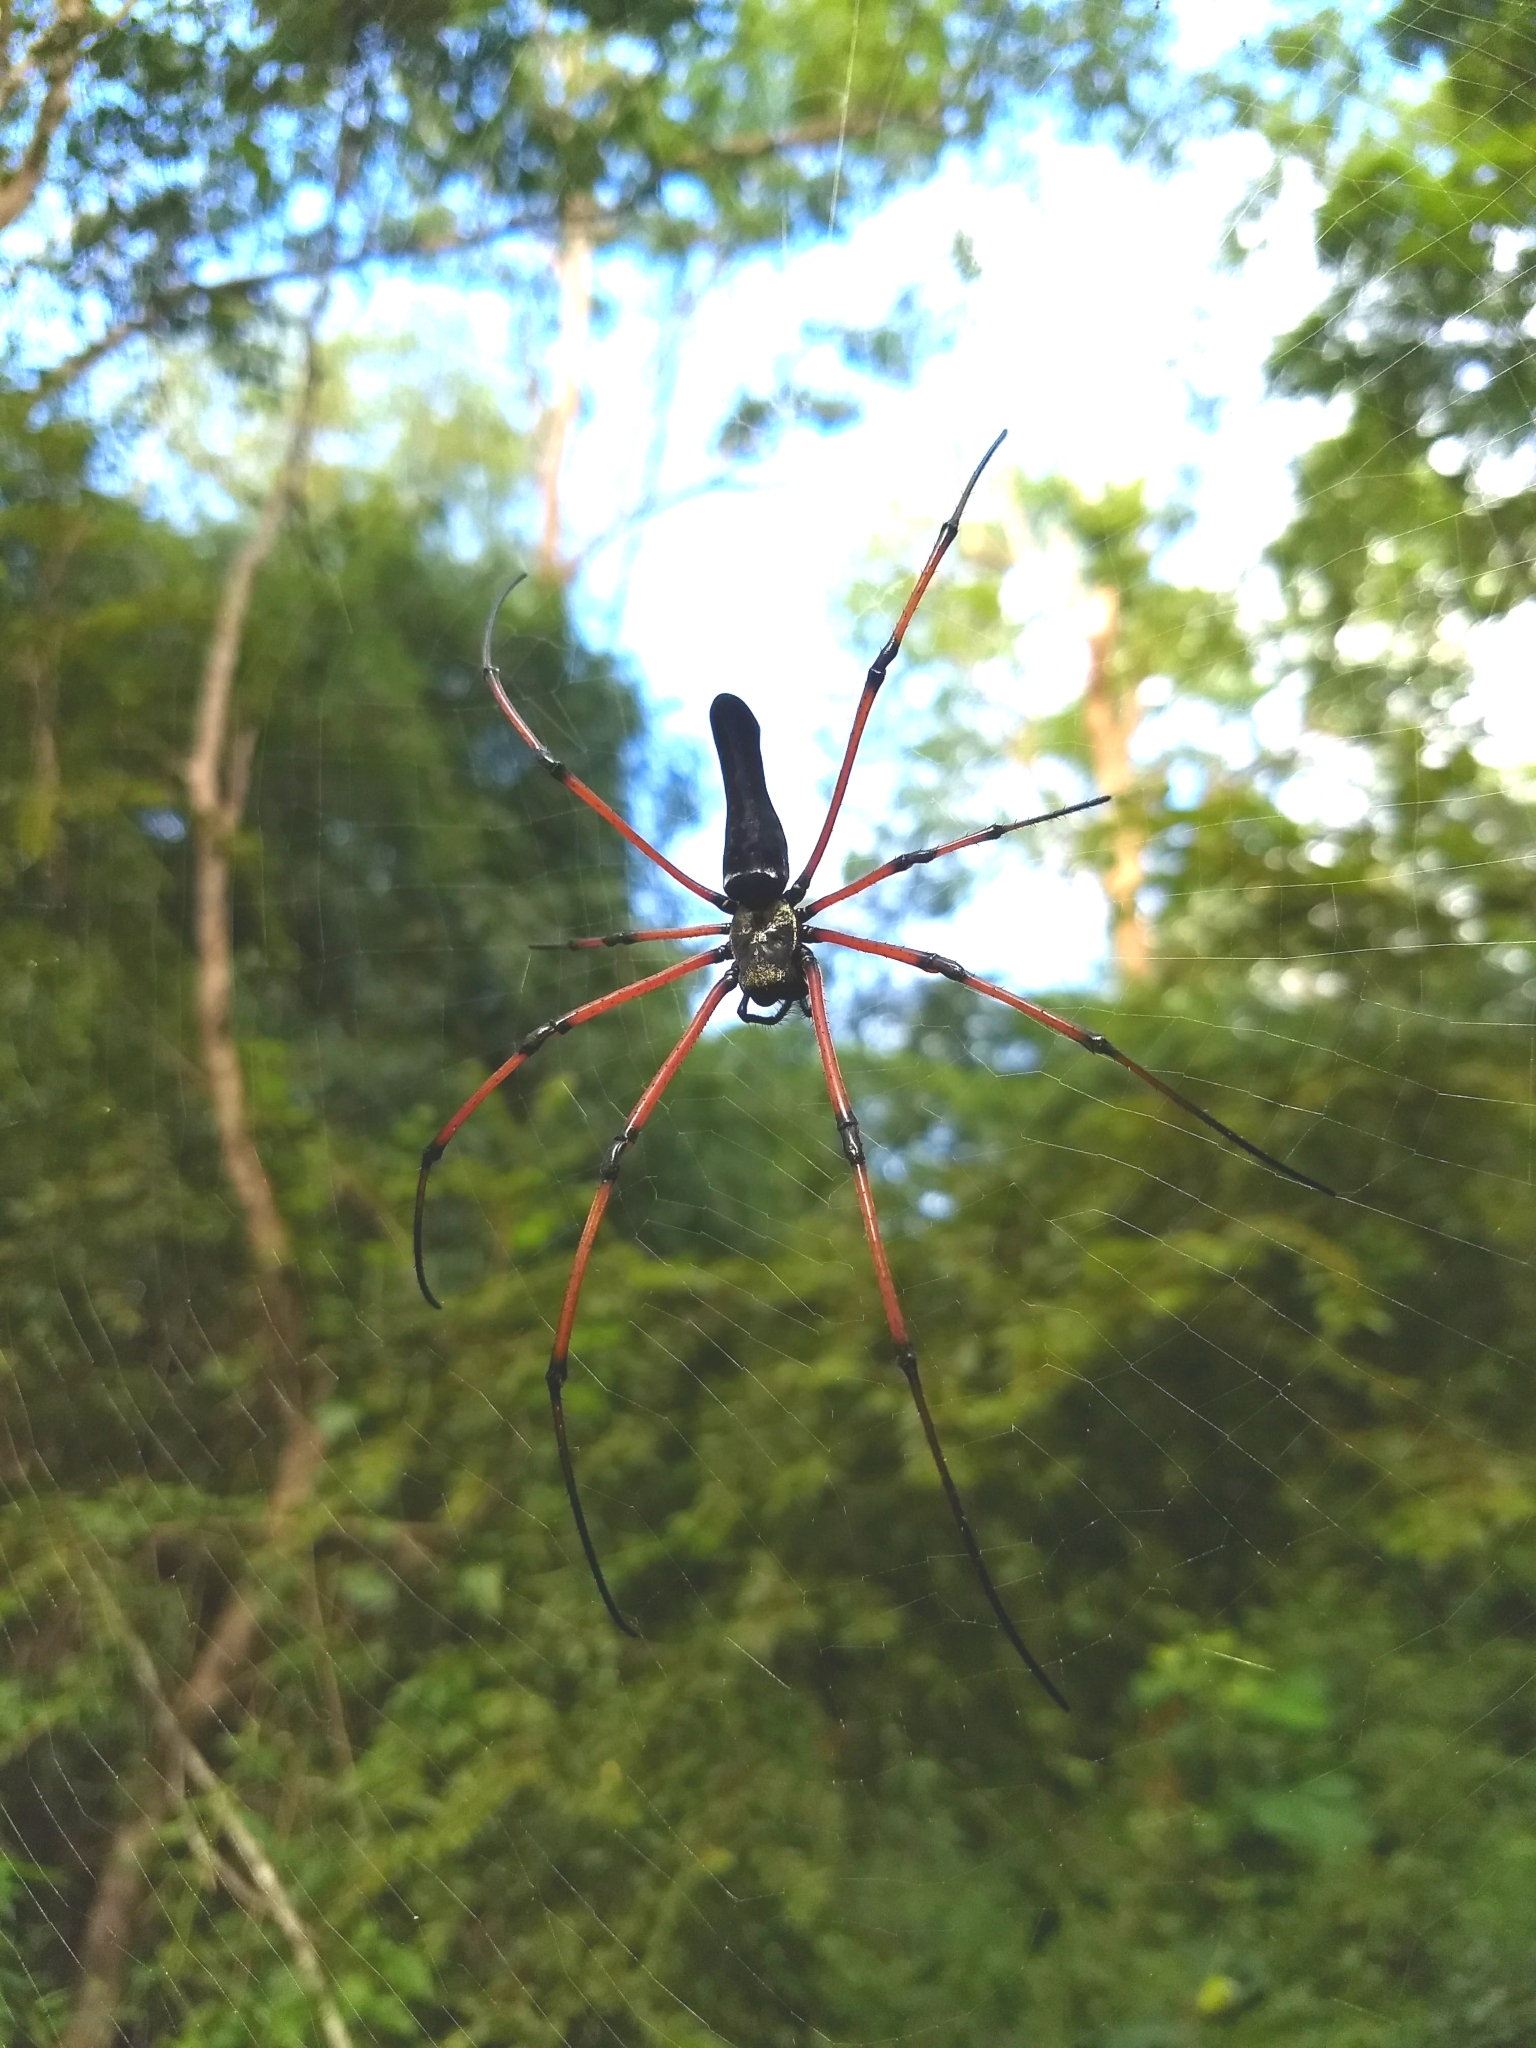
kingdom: Animalia
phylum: Arthropoda
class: Arachnida
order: Araneae
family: Araneidae
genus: Nephila
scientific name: Nephila kuhli
